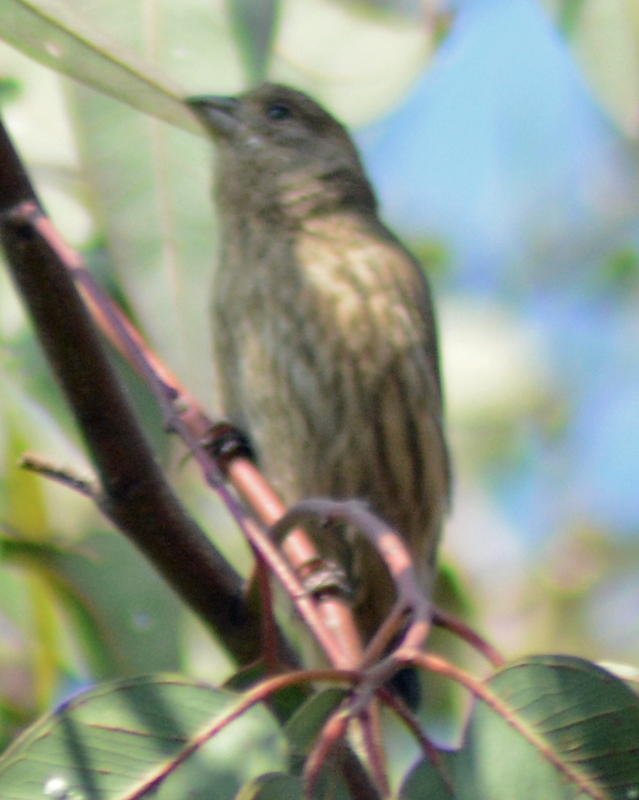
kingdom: Animalia
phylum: Chordata
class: Aves
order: Passeriformes
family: Fringillidae
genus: Haemorhous
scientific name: Haemorhous mexicanus
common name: House finch
